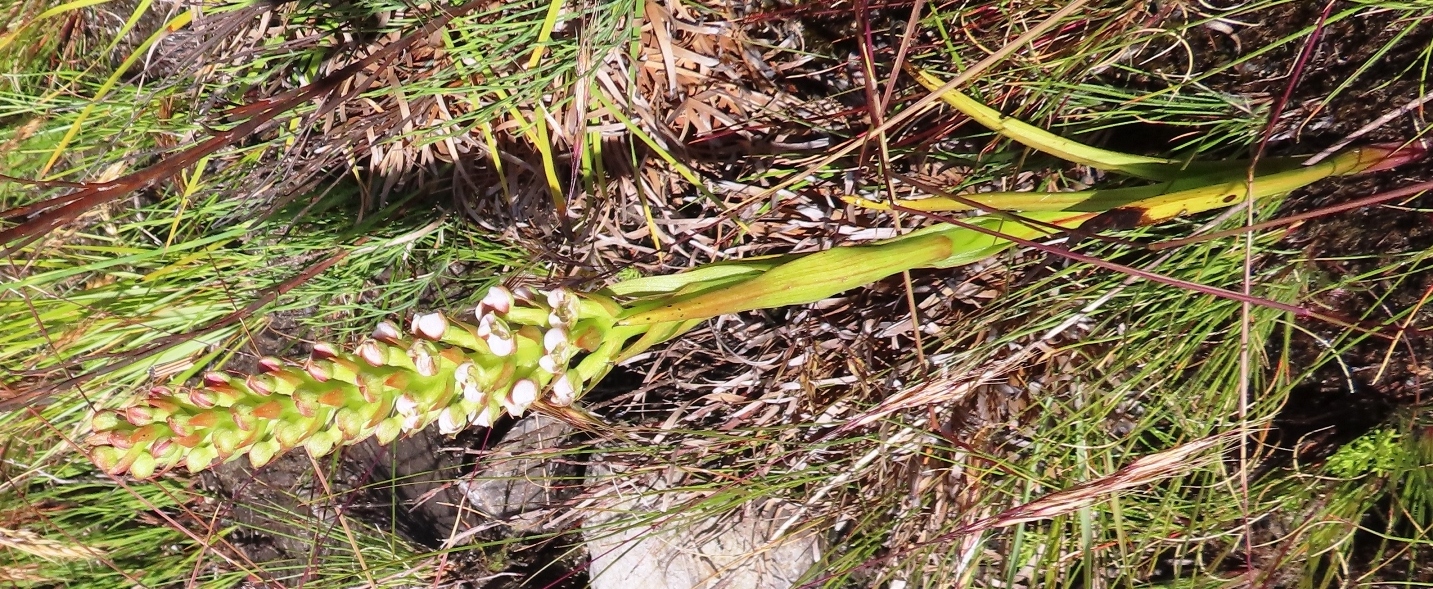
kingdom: Plantae
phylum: Tracheophyta
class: Liliopsida
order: Asparagales
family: Orchidaceae
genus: Evotella
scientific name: Evotella carnosa
